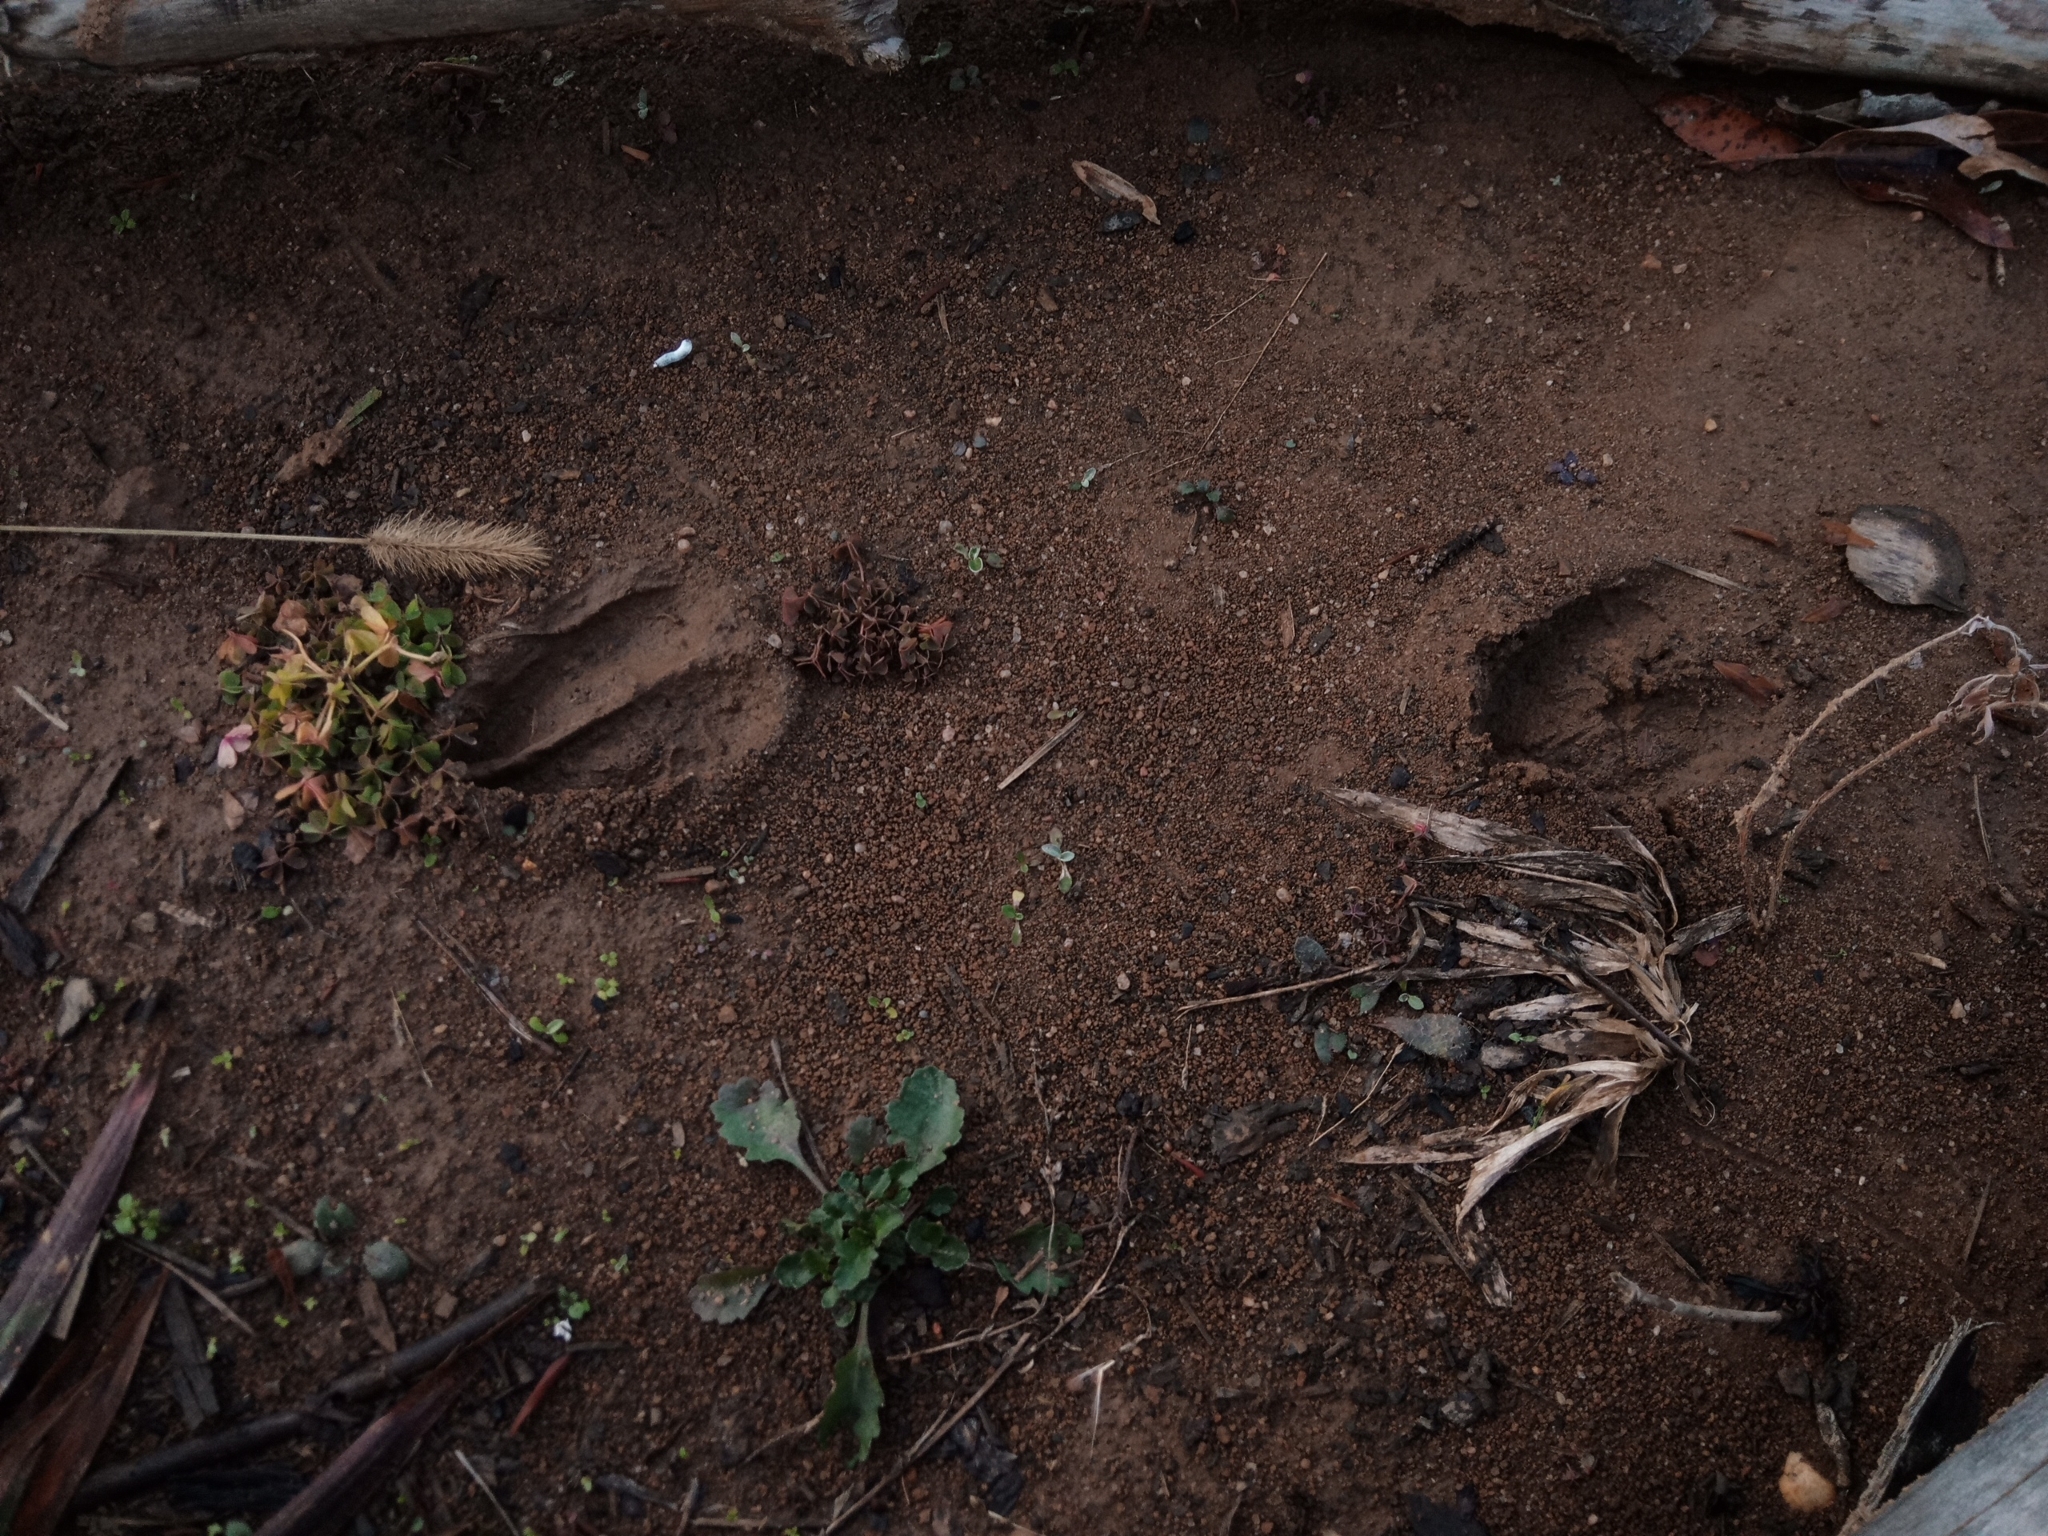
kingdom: Animalia
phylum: Chordata
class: Mammalia
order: Artiodactyla
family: Cervidae
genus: Odocoileus
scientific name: Odocoileus virginianus
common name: White-tailed deer
